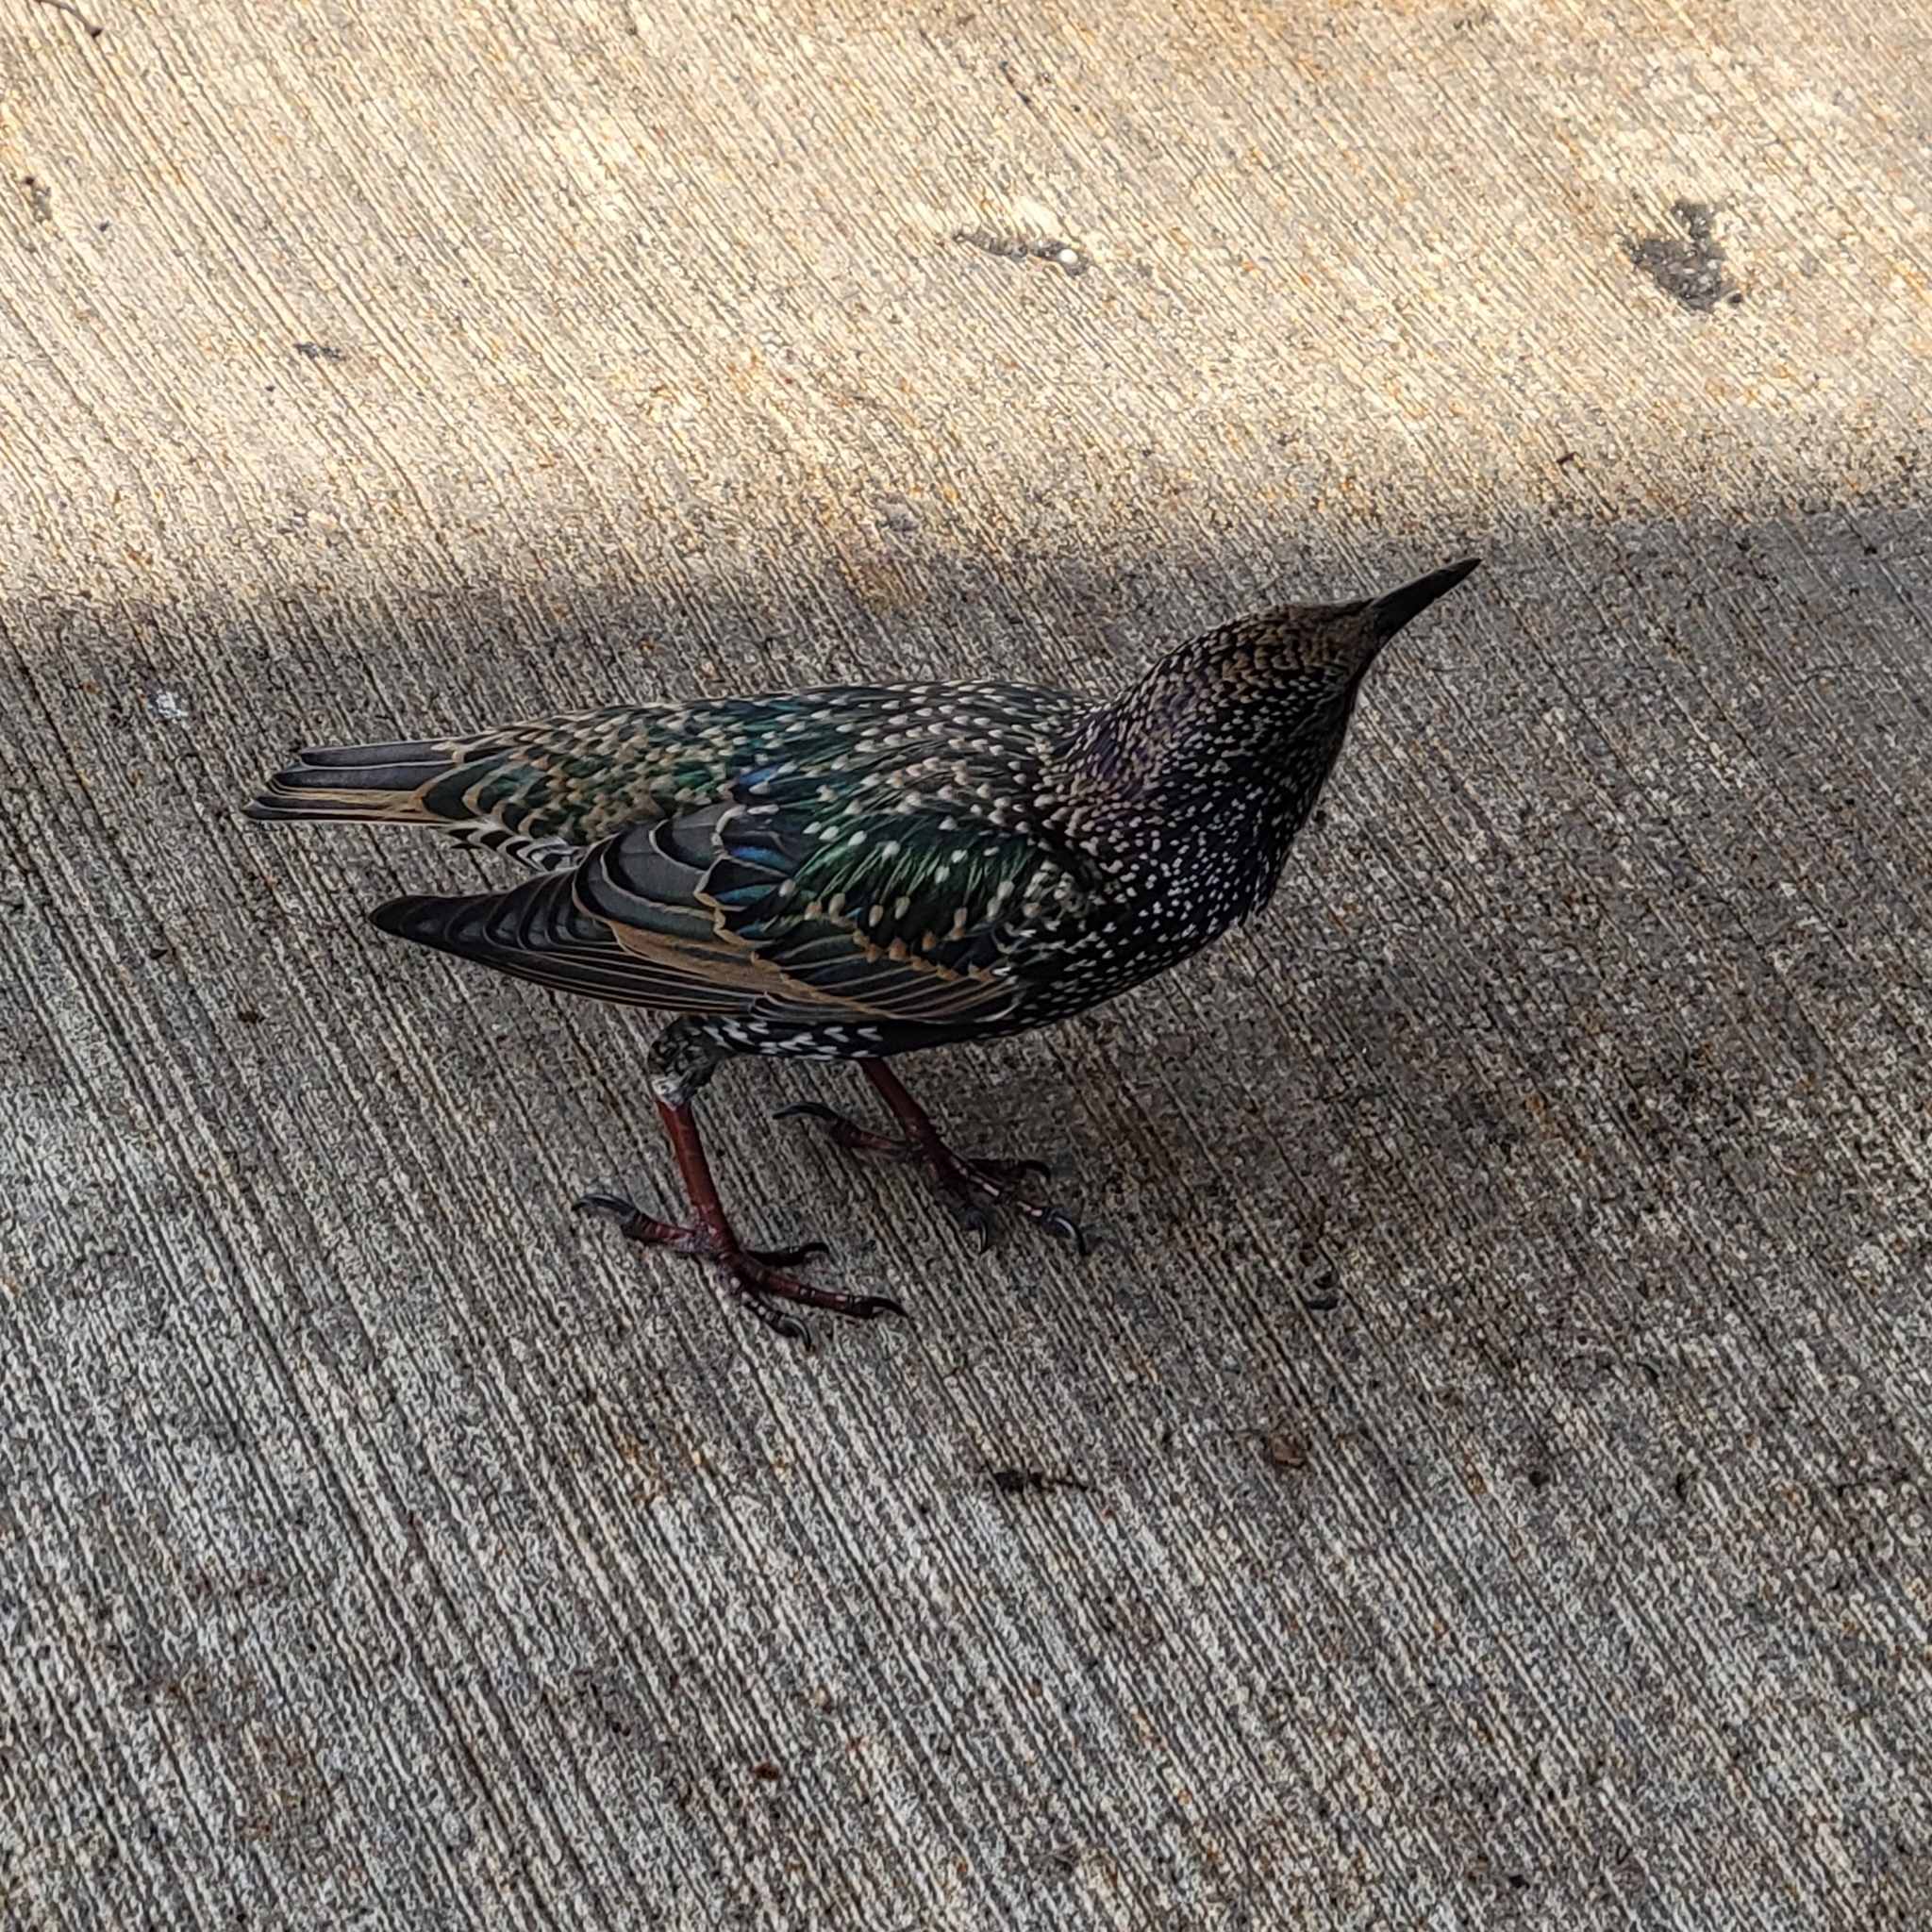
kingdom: Animalia
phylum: Chordata
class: Aves
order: Passeriformes
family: Sturnidae
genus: Sturnus
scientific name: Sturnus vulgaris
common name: Common starling
